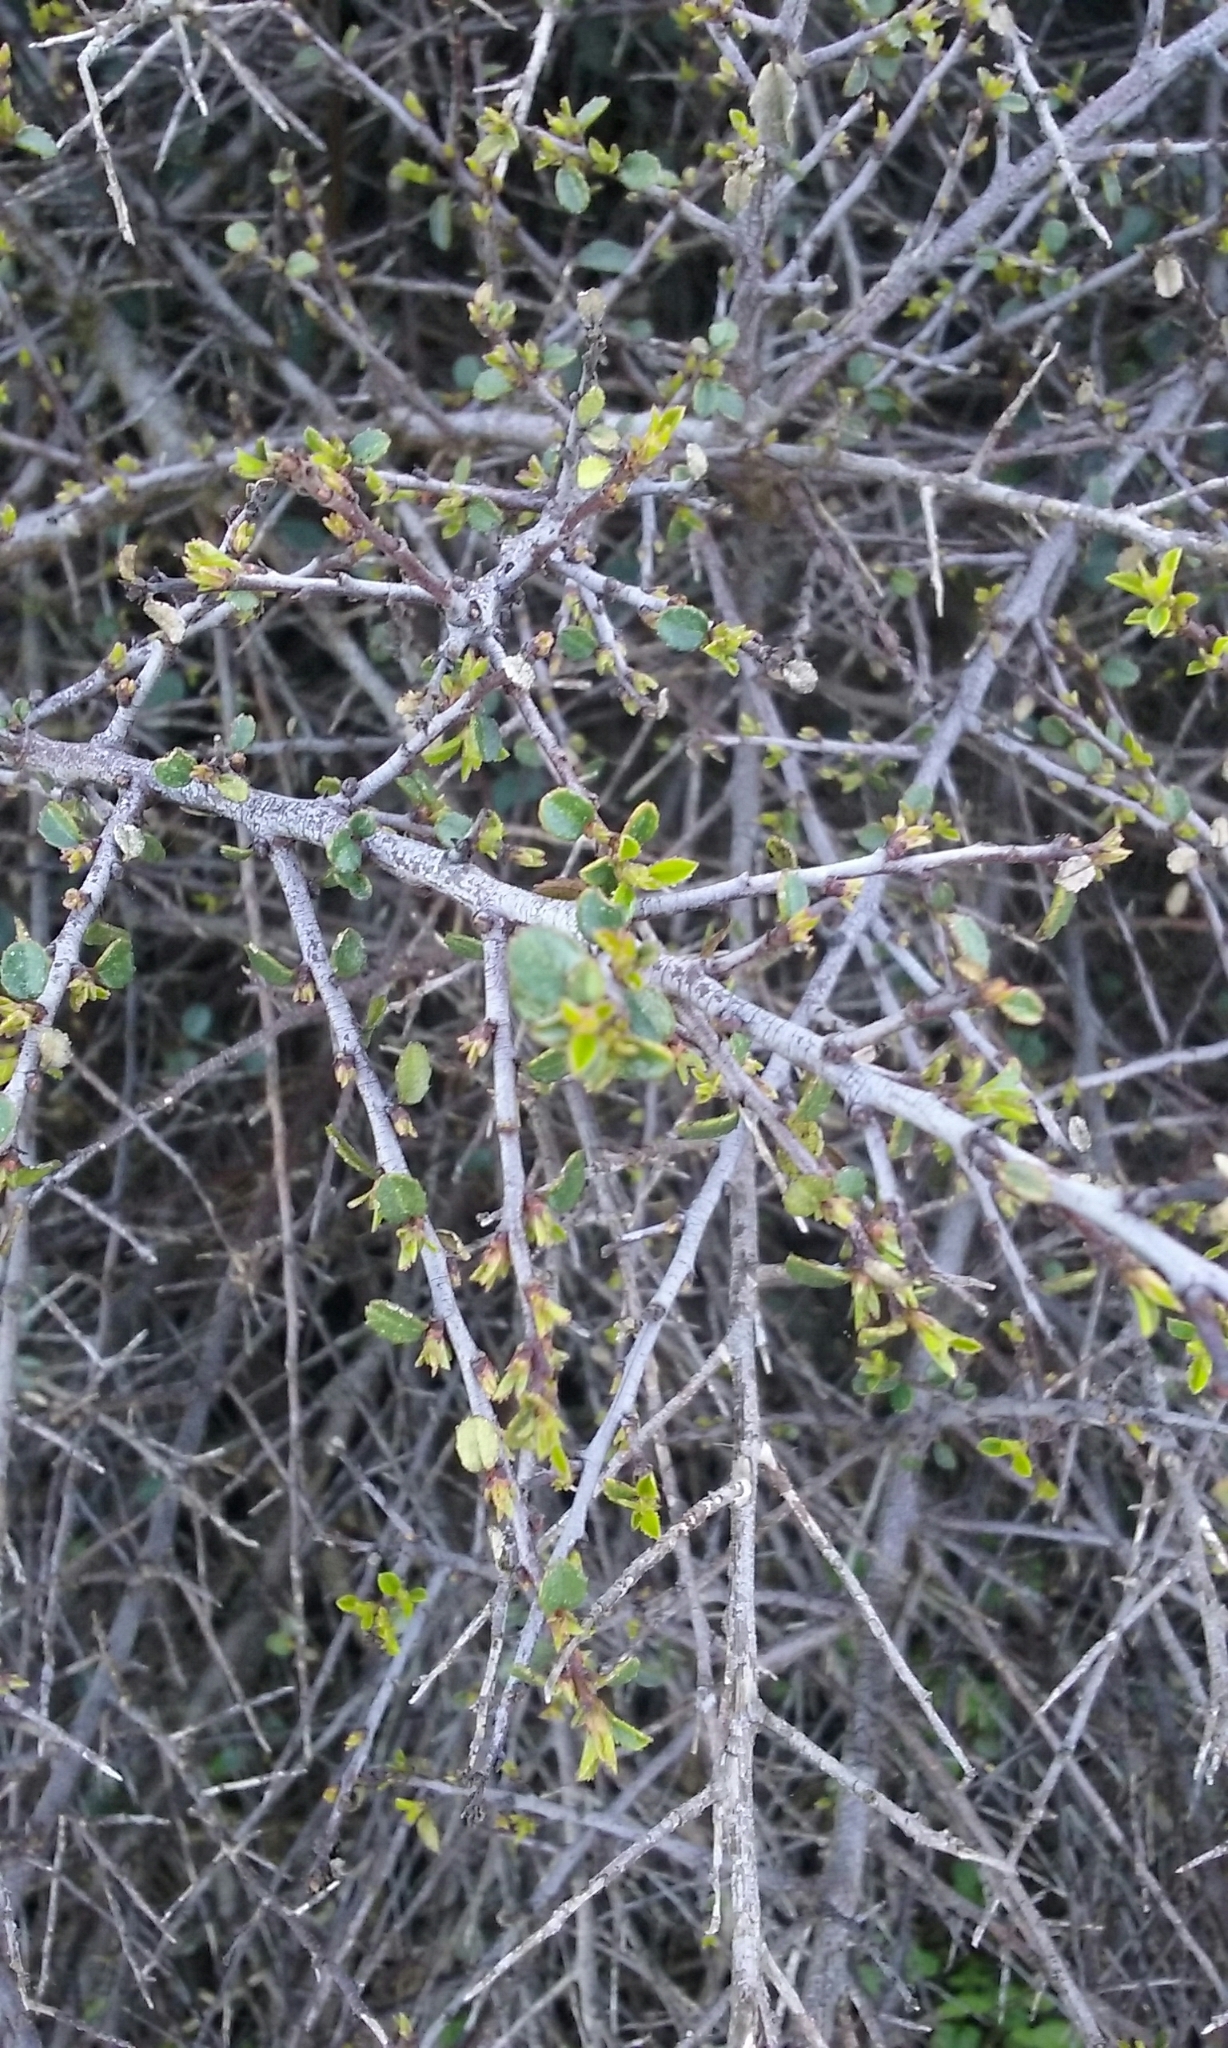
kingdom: Plantae
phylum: Tracheophyta
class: Magnoliopsida
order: Rosales
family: Rhamnaceae
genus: Endotropis
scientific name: Endotropis crocea
